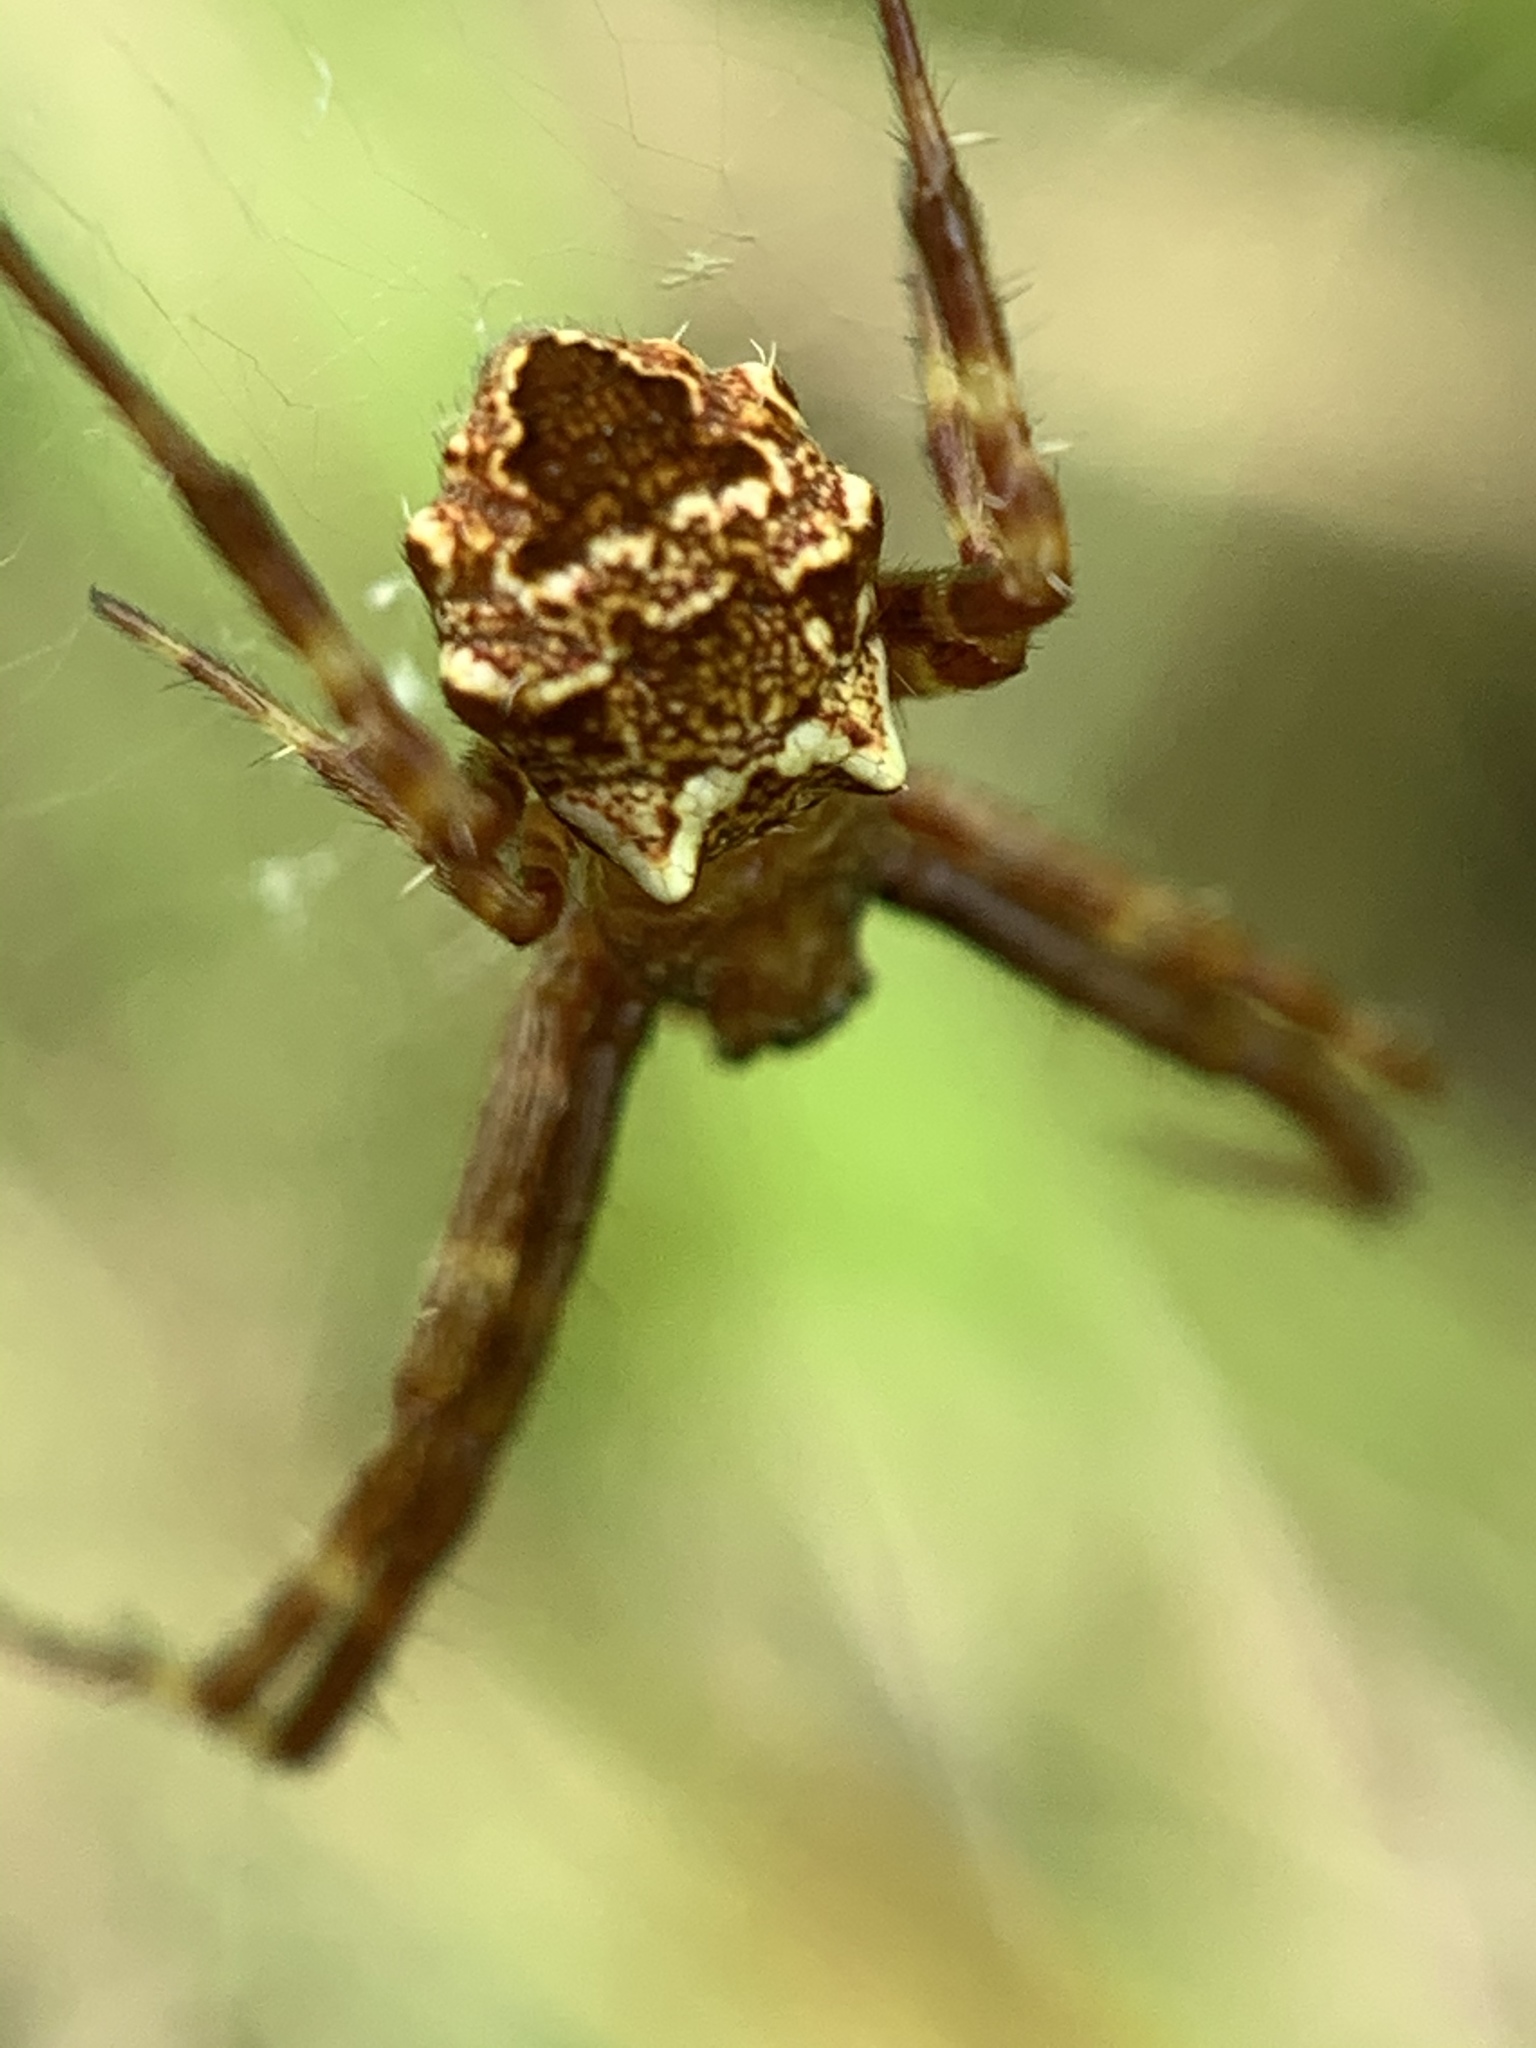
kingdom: Animalia
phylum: Arthropoda
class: Arachnida
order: Araneae
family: Araneidae
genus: Gea
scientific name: Gea heptagon
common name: Orb weavers
